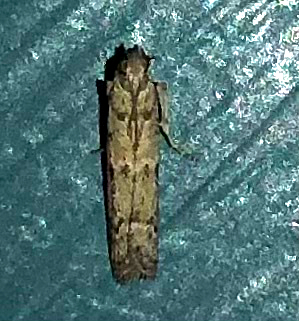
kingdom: Animalia
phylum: Arthropoda
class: Insecta
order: Lepidoptera
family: Pyralidae
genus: Ephestiodes
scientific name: Ephestiodes gilvescentella
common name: Moth
